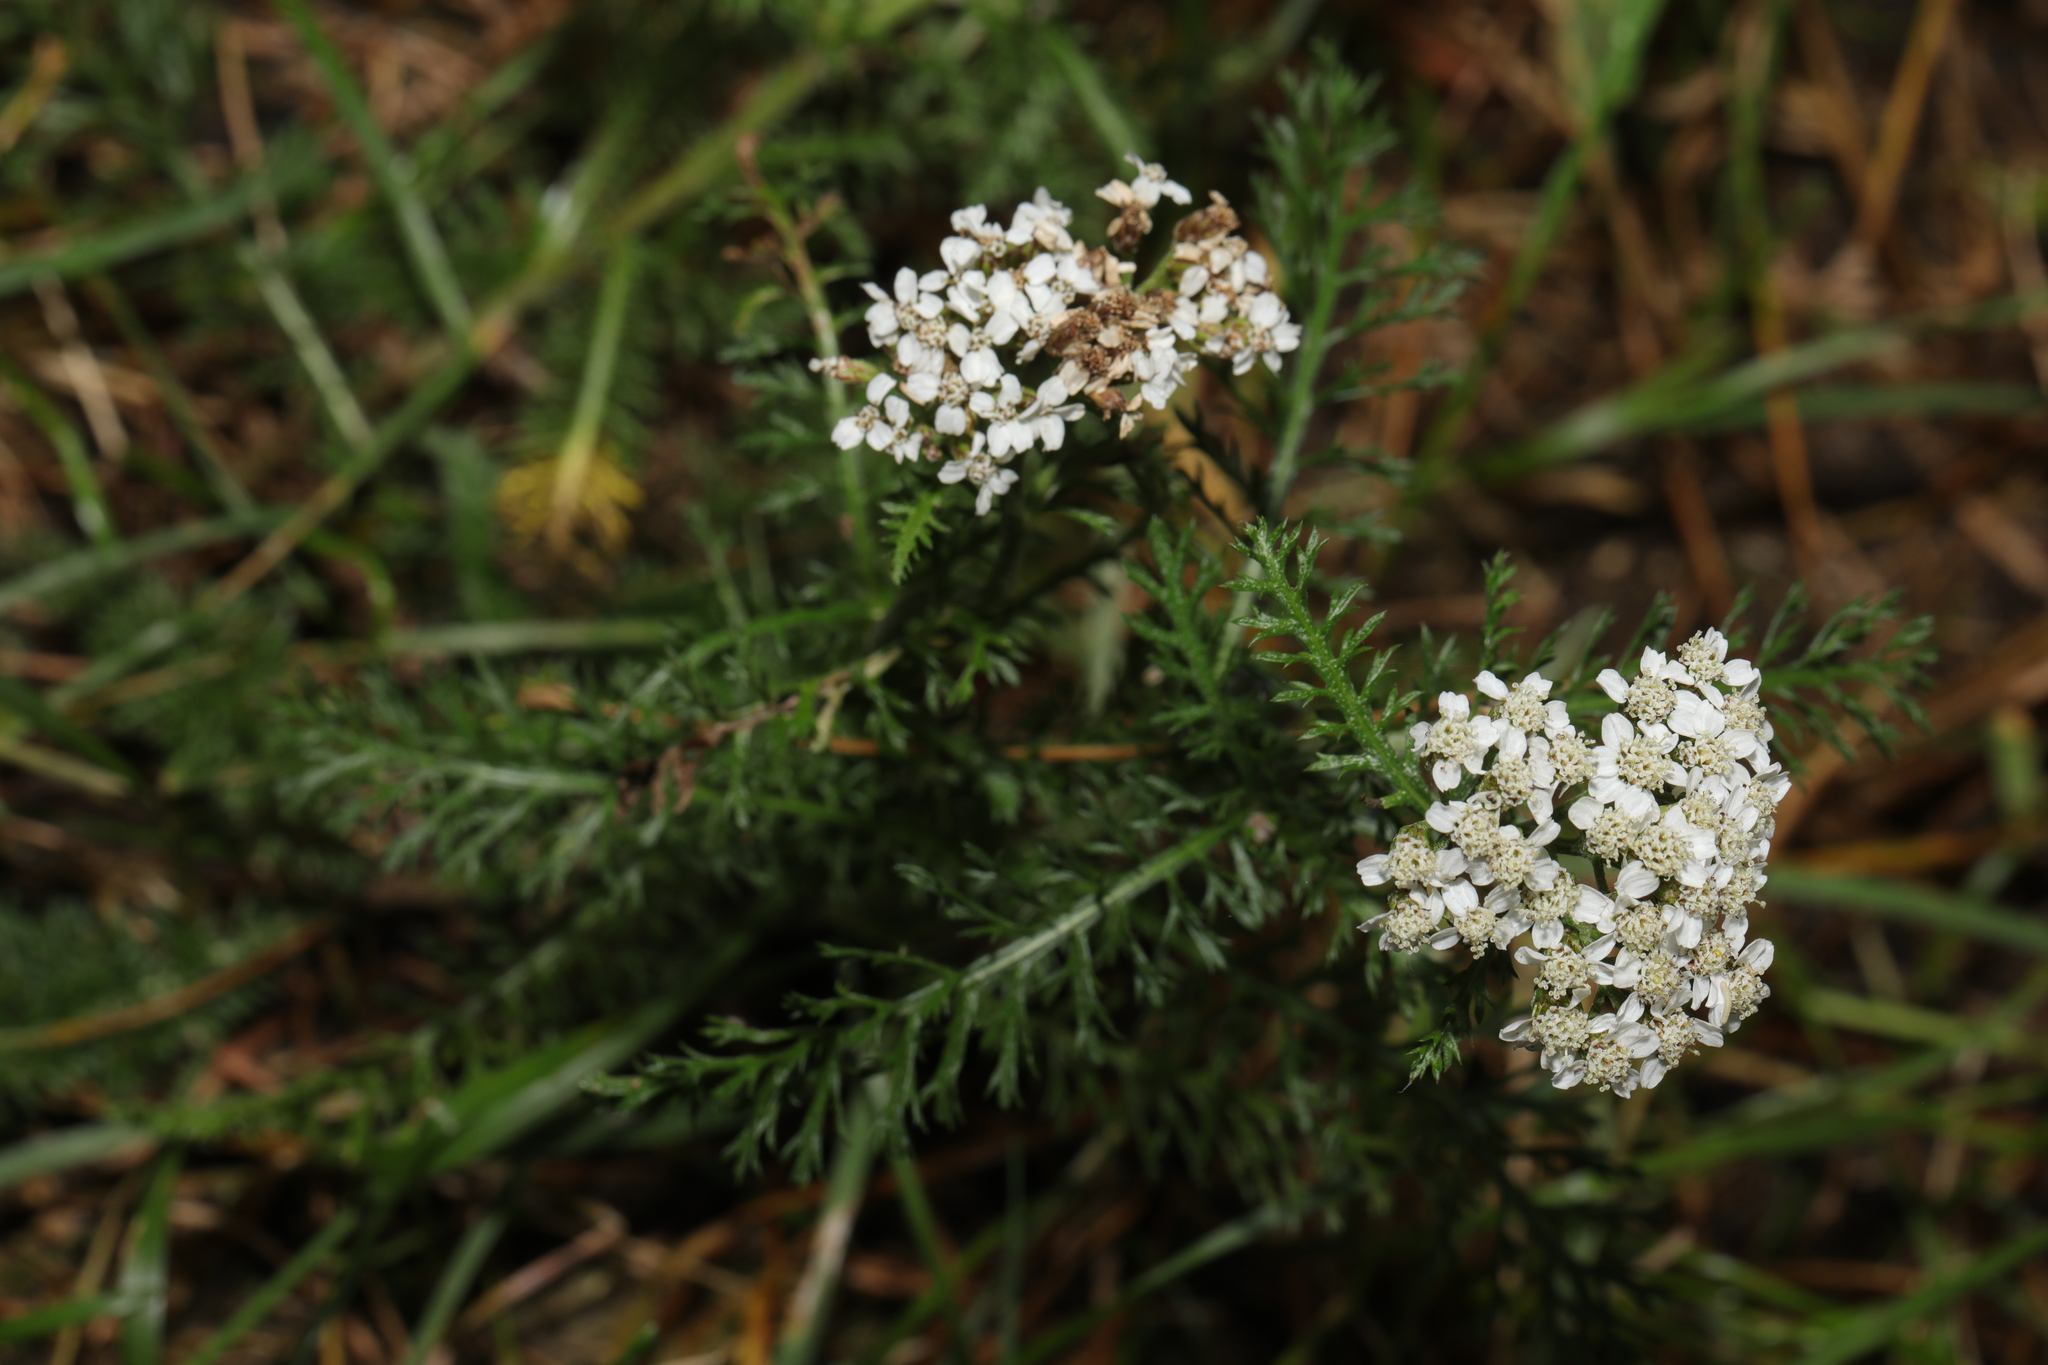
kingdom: Plantae
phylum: Tracheophyta
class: Magnoliopsida
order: Asterales
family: Asteraceae
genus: Achillea
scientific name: Achillea millefolium
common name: Yarrow
